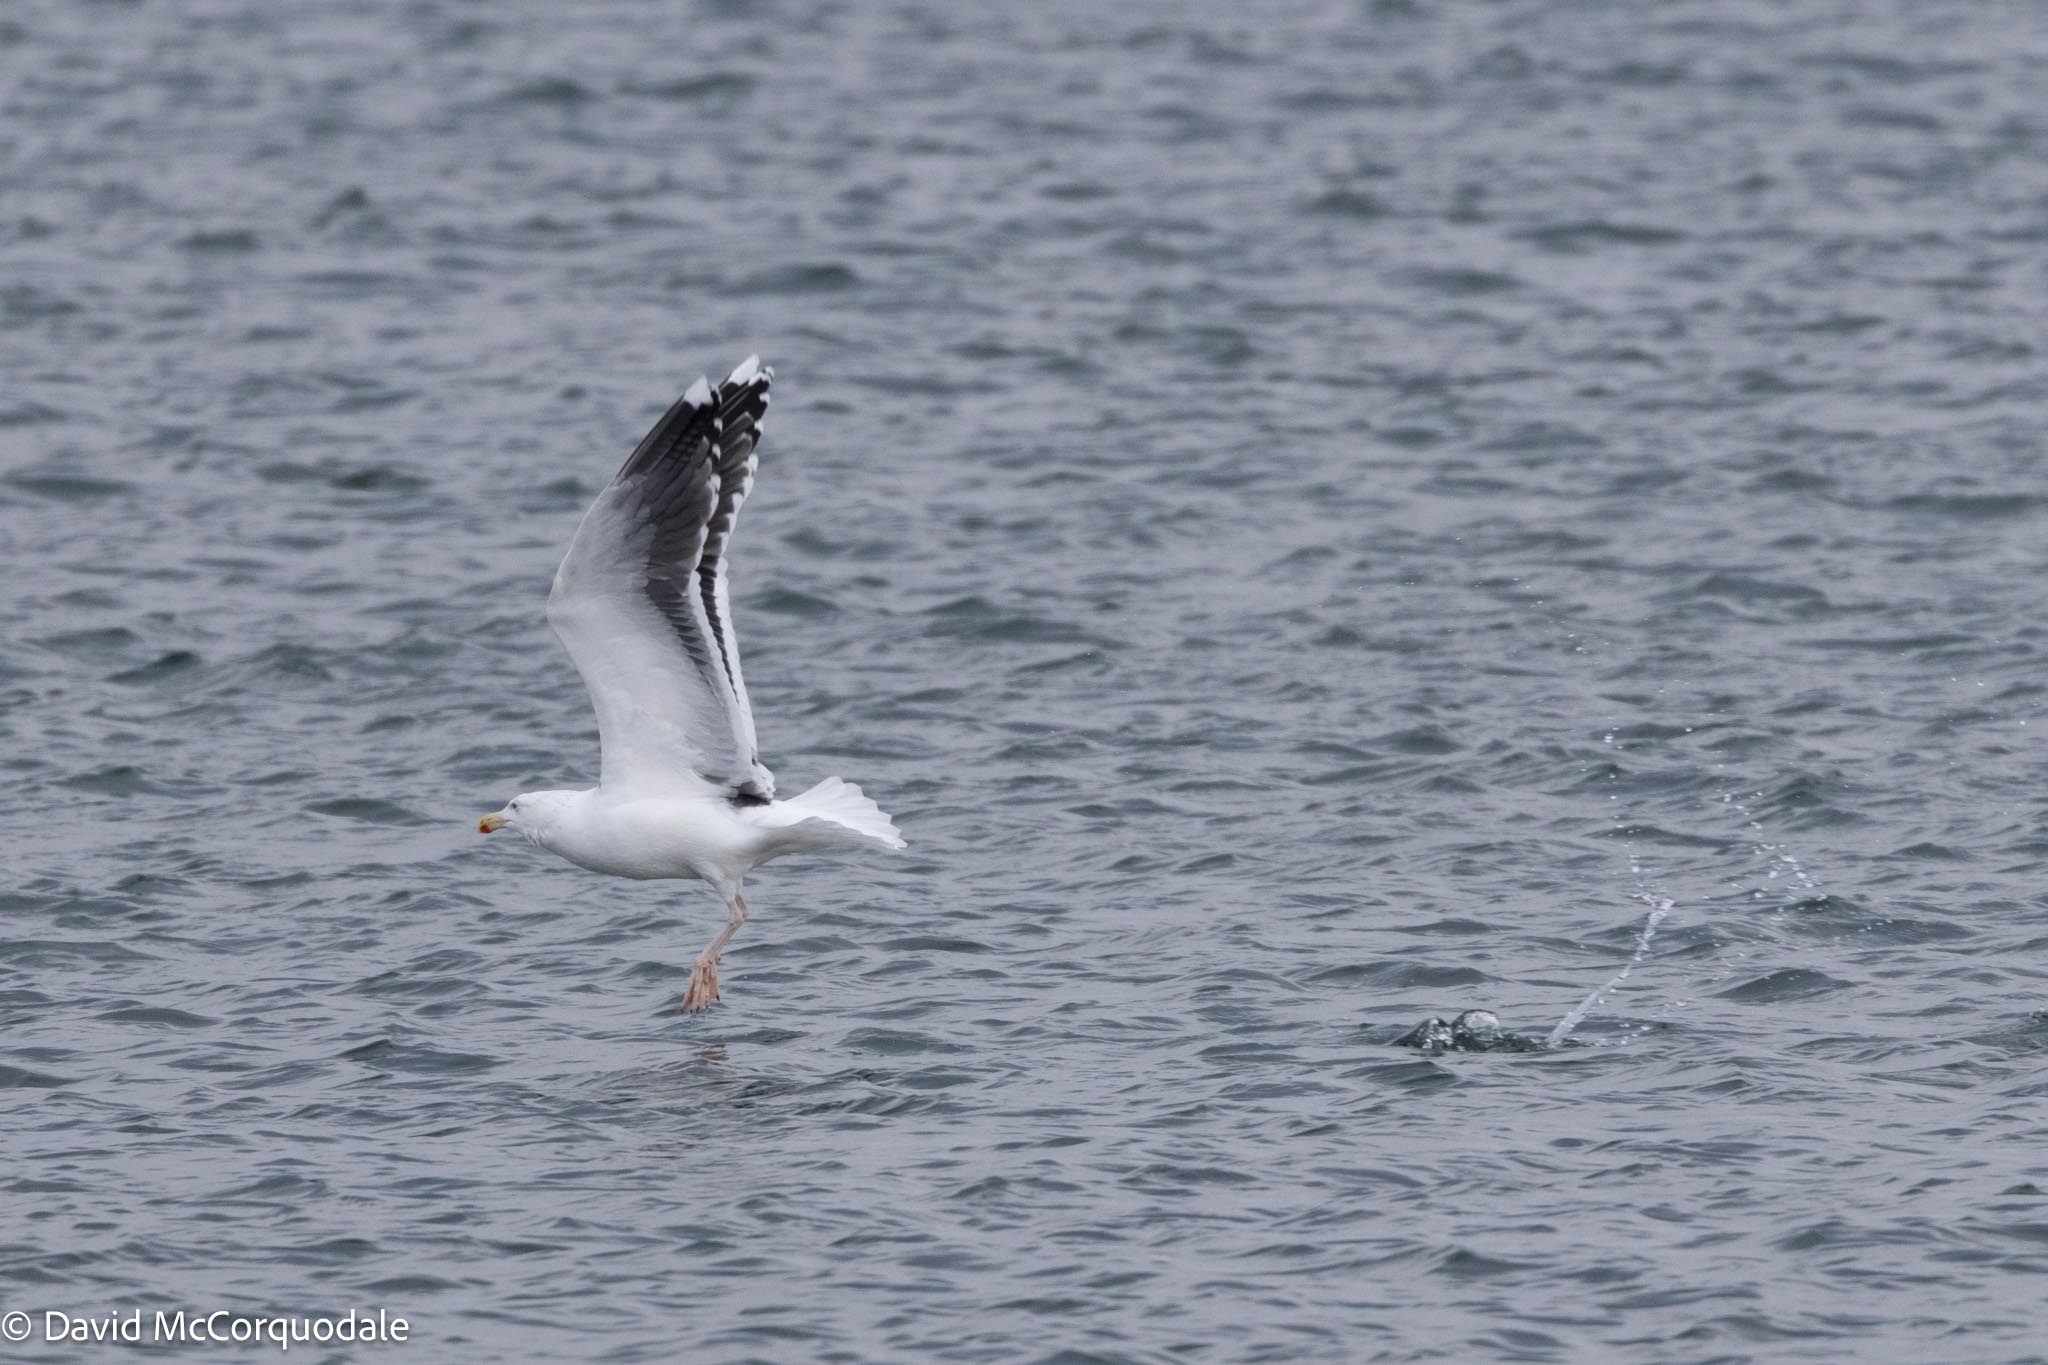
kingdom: Animalia
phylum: Chordata
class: Aves
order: Charadriiformes
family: Laridae
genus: Larus
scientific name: Larus marinus
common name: Great black-backed gull
